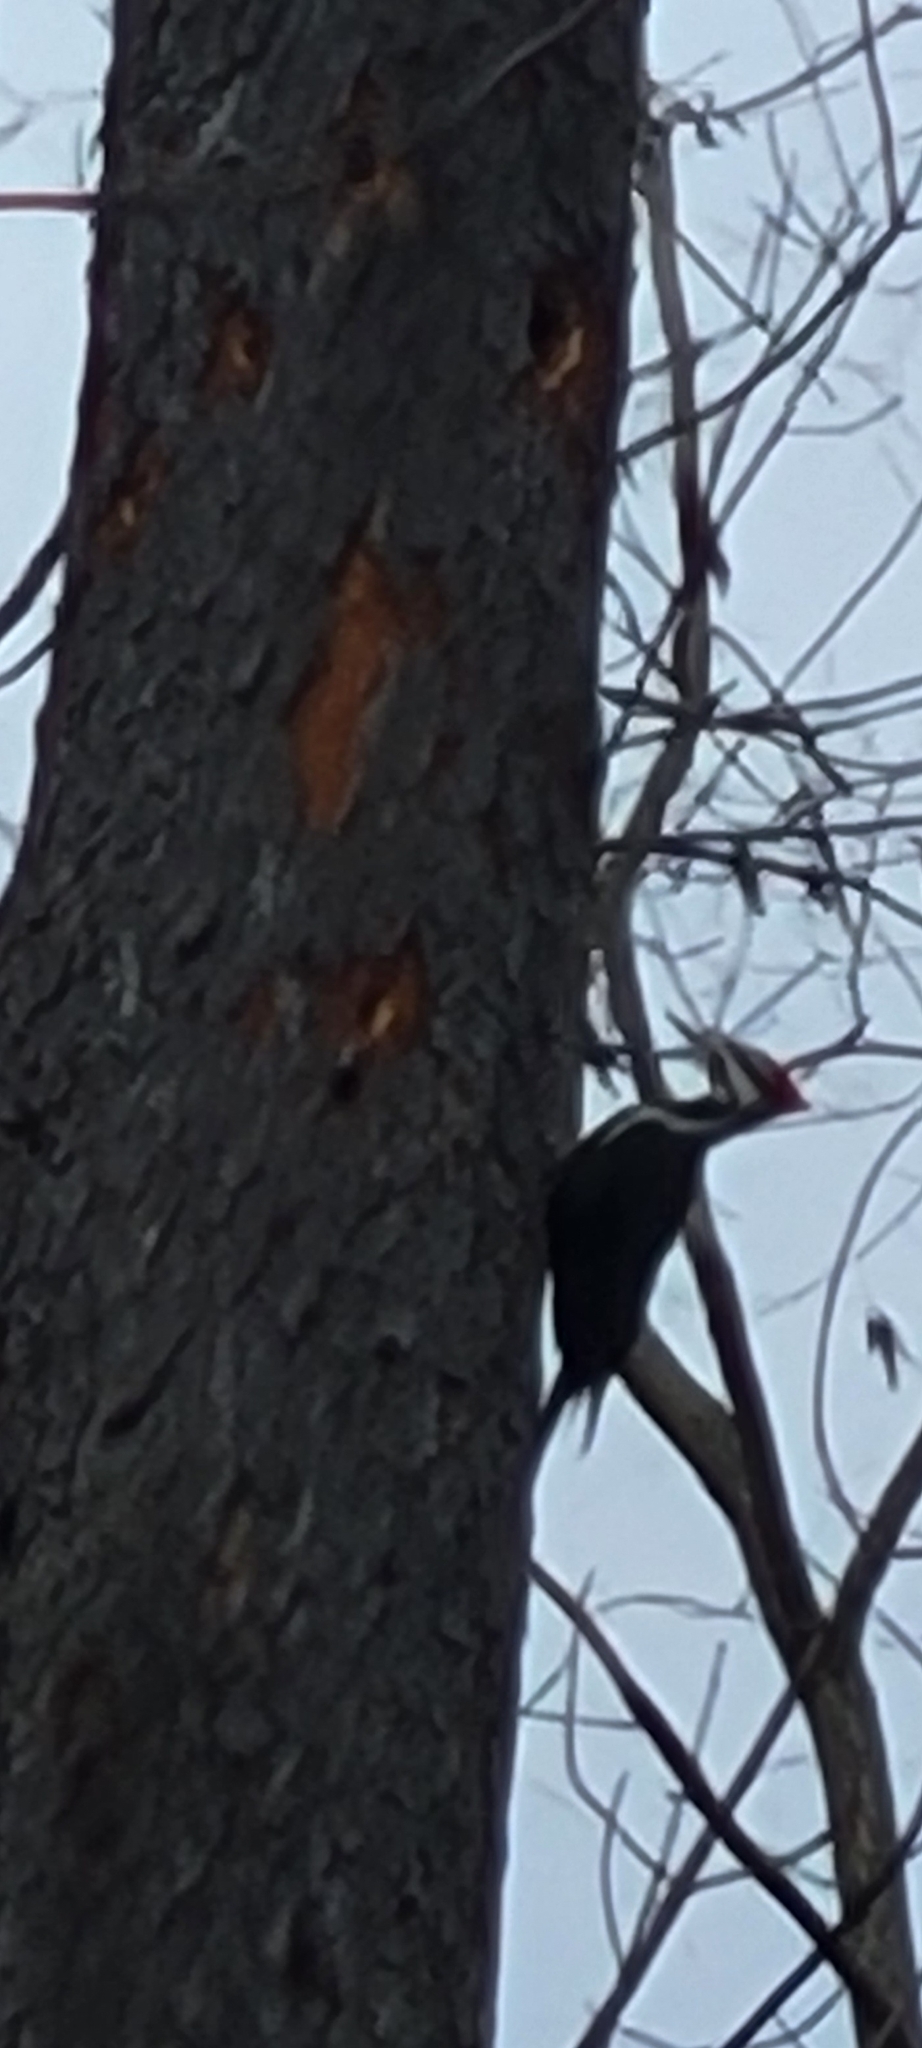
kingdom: Animalia
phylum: Chordata
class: Aves
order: Piciformes
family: Picidae
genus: Dryocopus
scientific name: Dryocopus pileatus
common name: Pileated woodpecker
